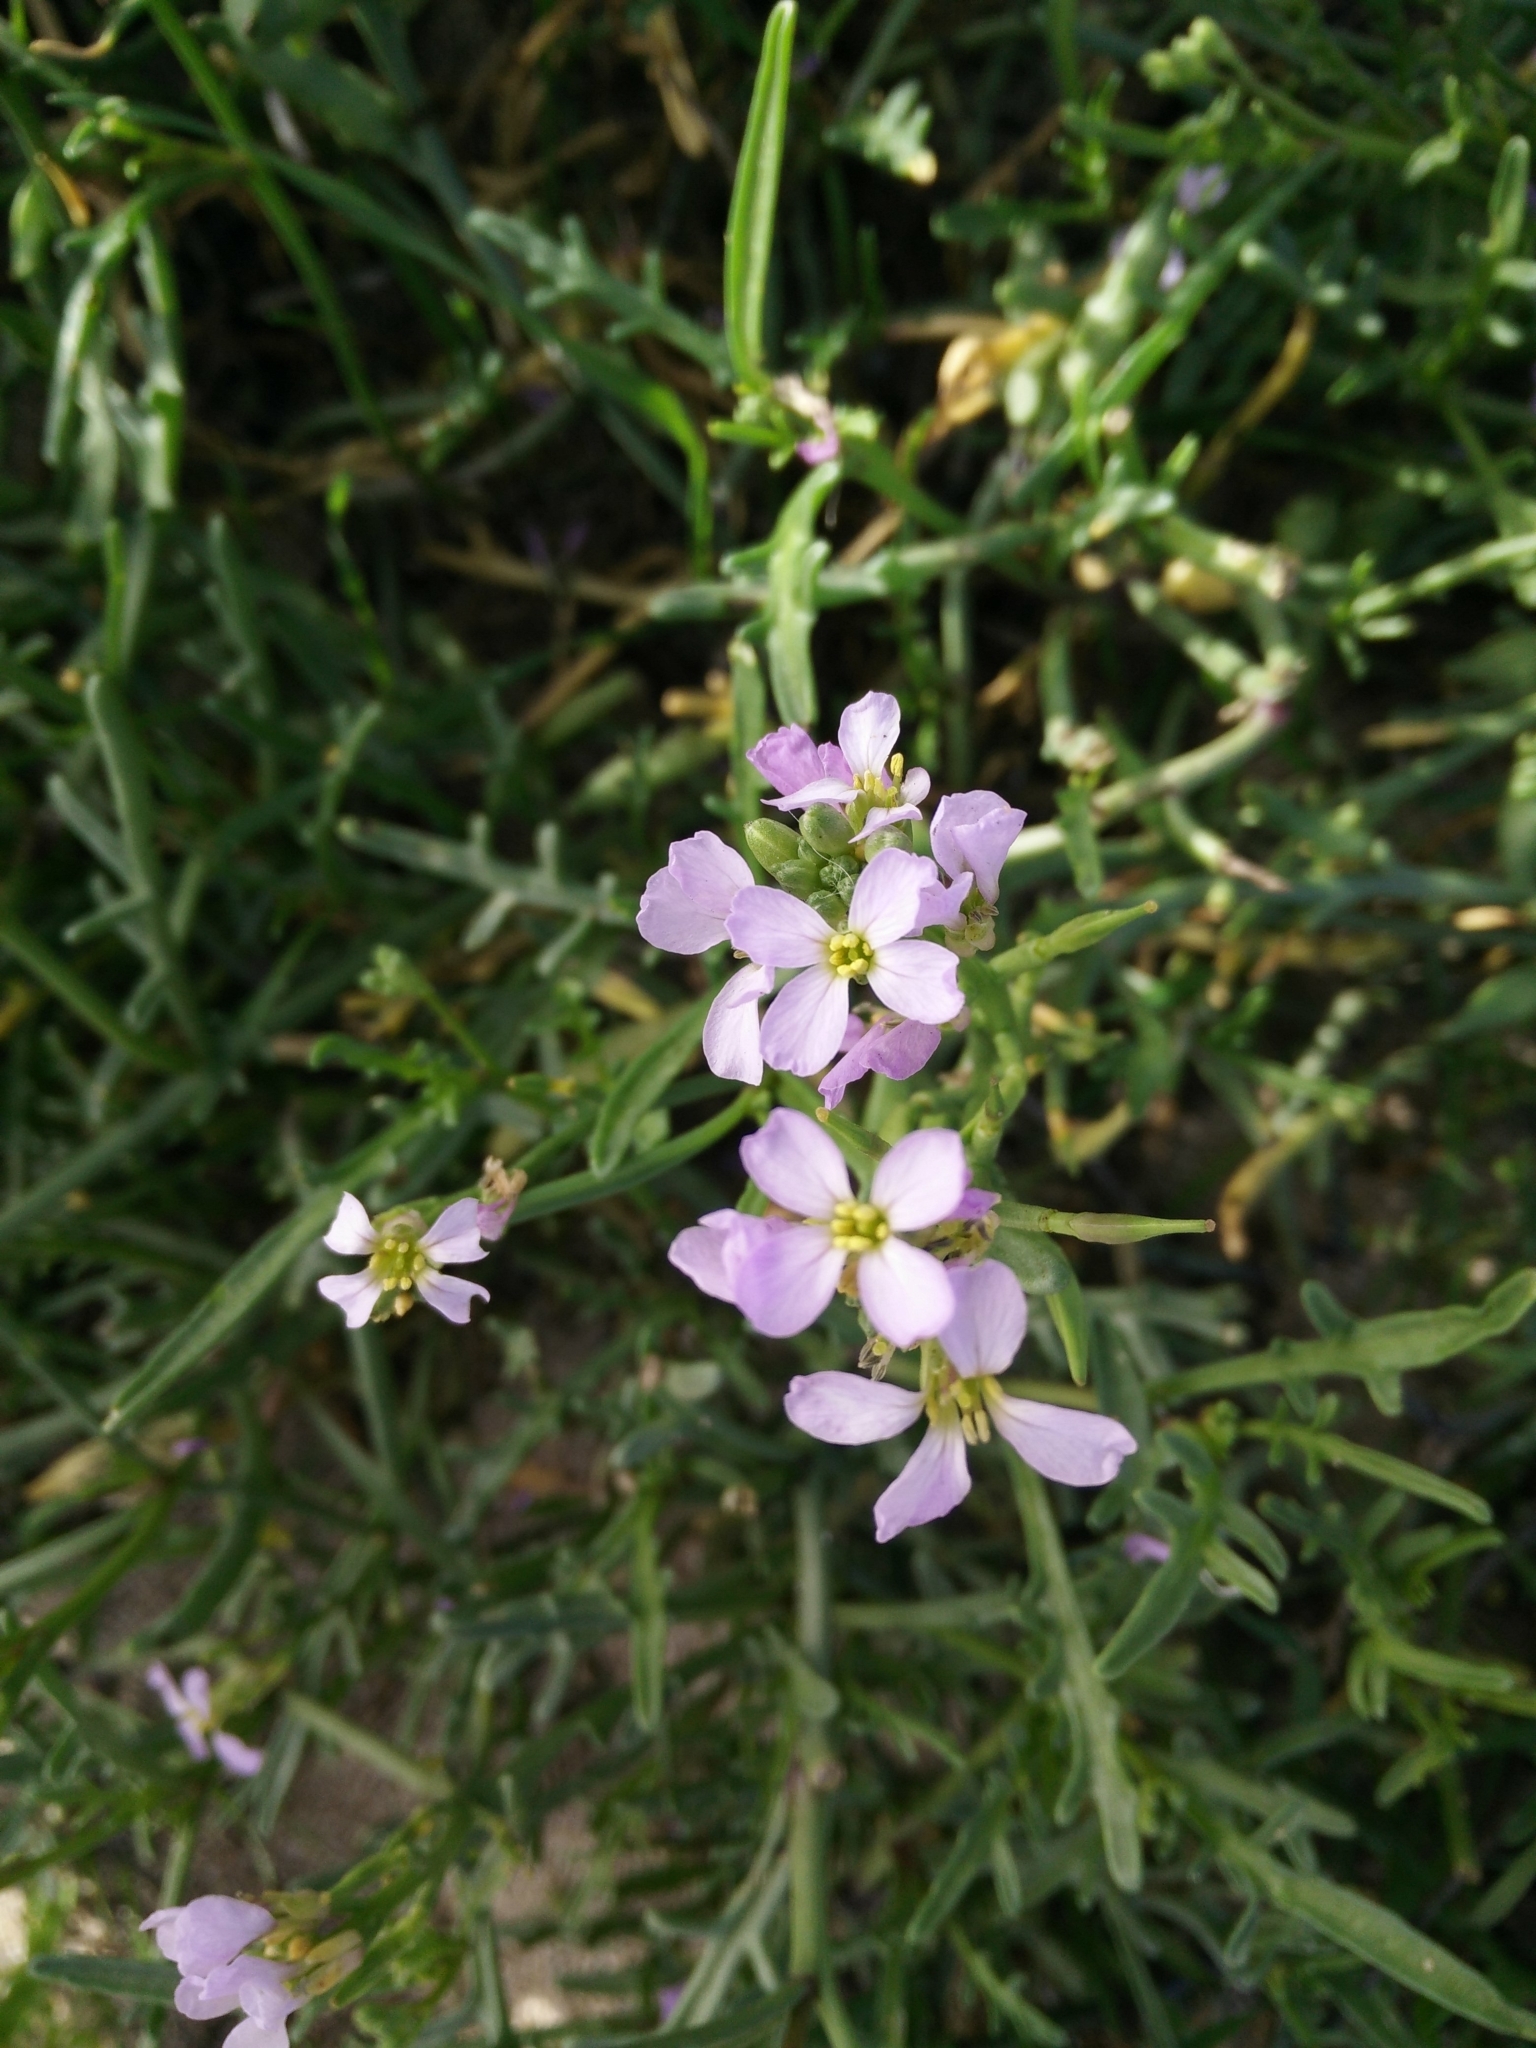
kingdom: Plantae
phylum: Tracheophyta
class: Magnoliopsida
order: Brassicales
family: Brassicaceae
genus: Cakile
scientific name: Cakile maritima
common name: Sea rocket
